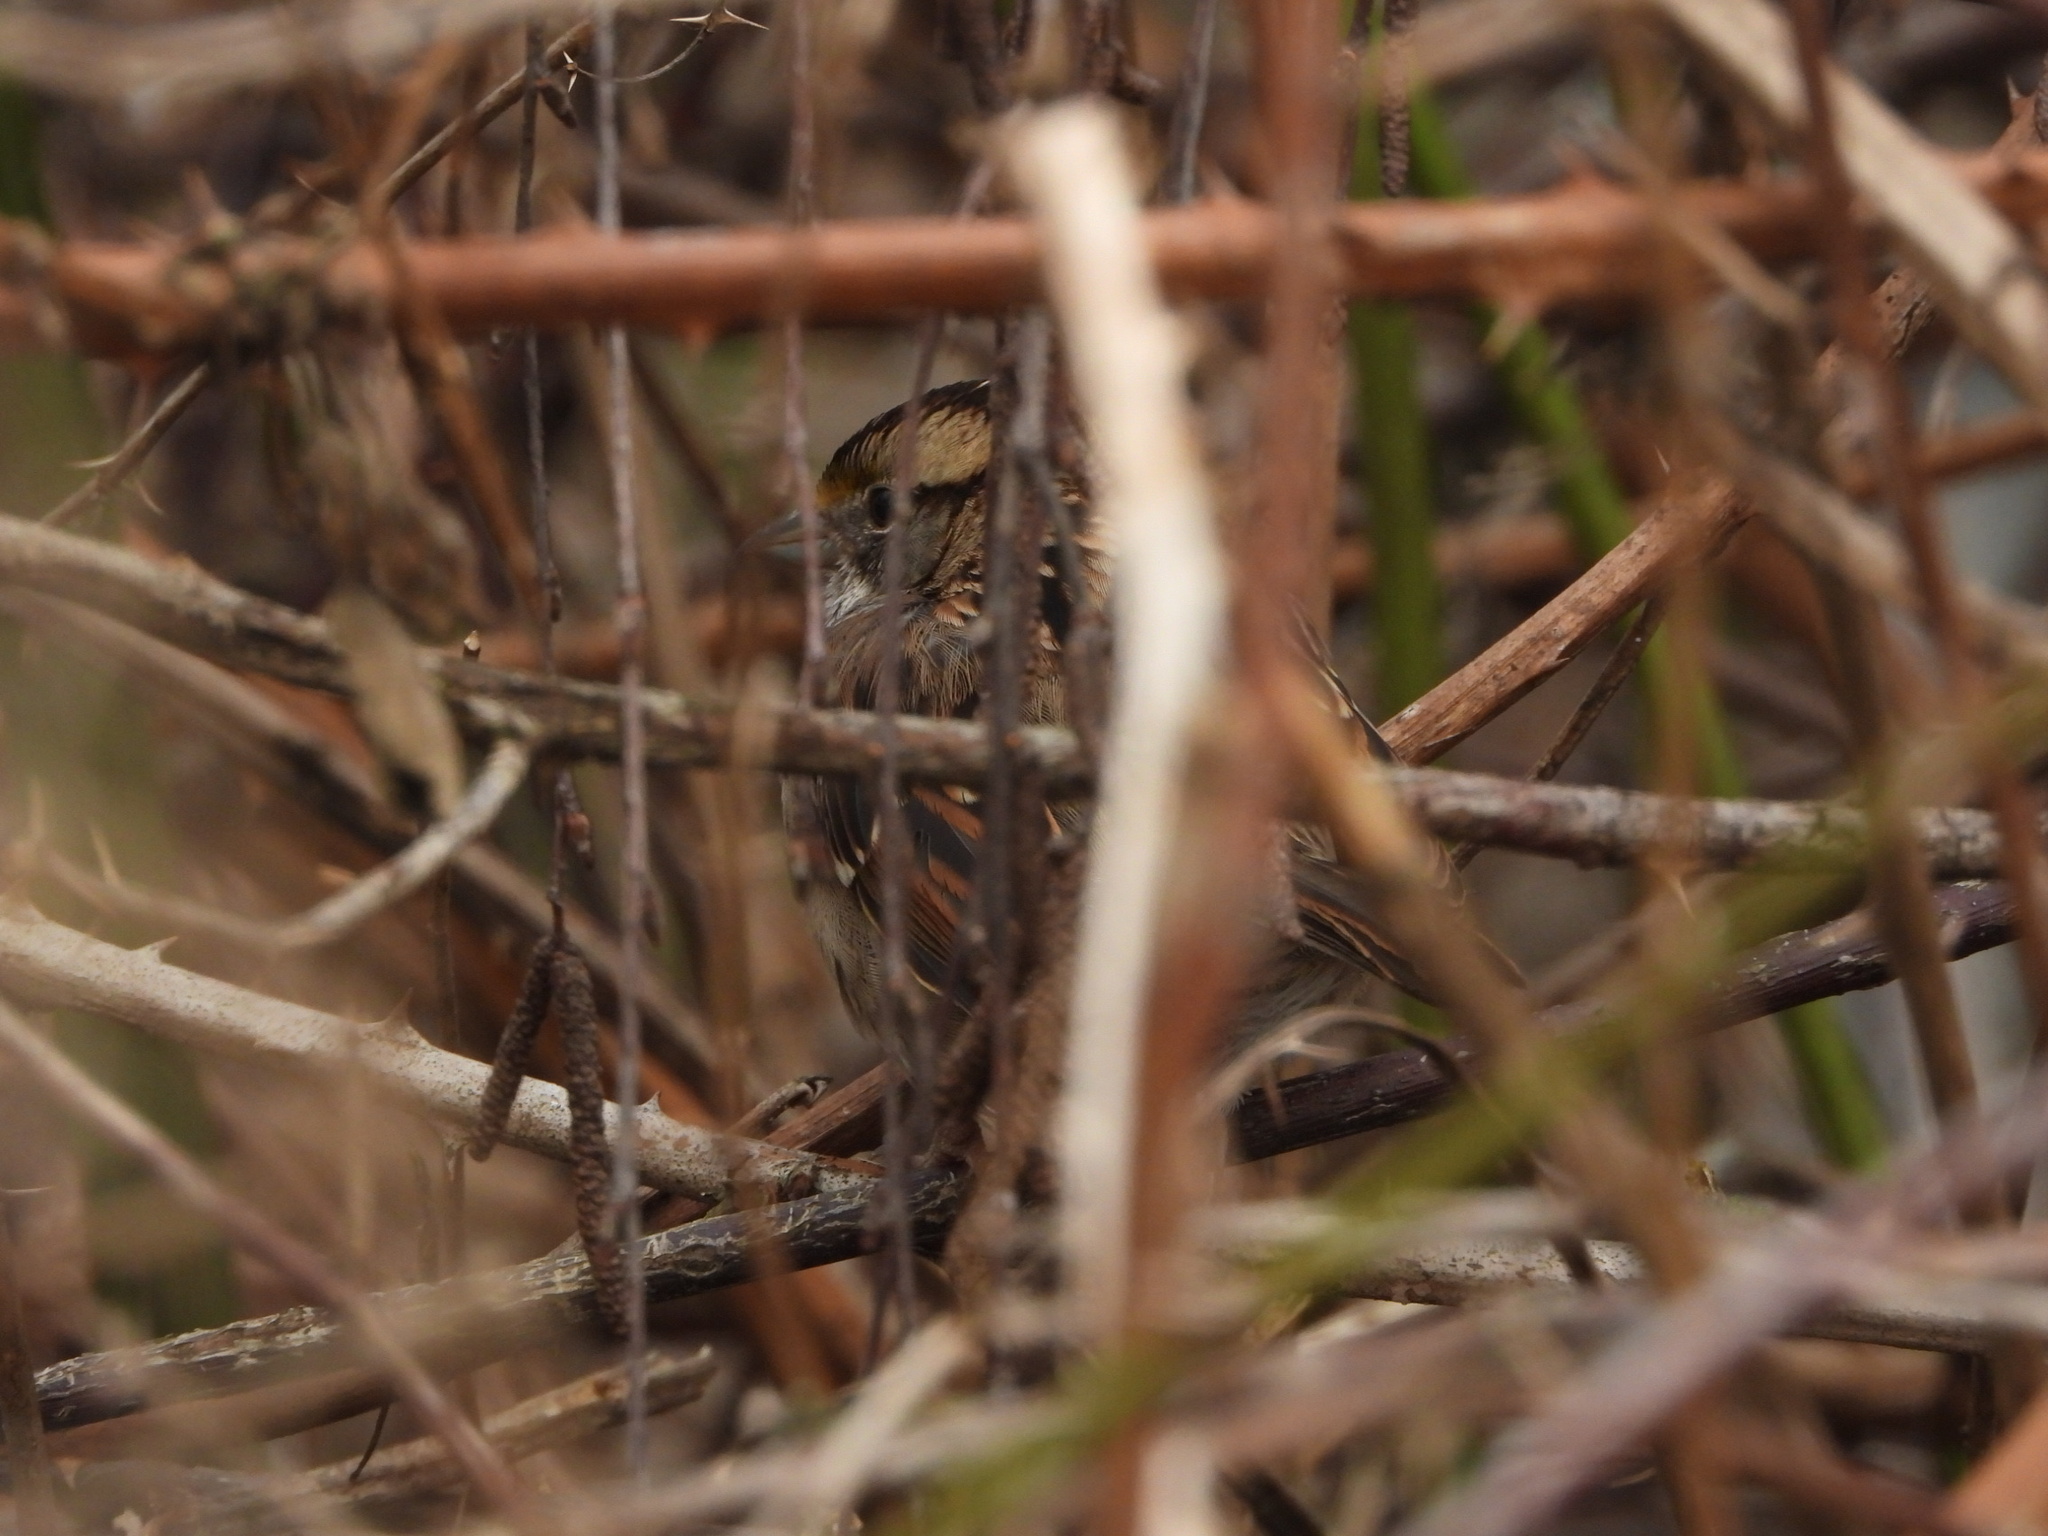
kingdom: Animalia
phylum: Chordata
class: Aves
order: Passeriformes
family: Passerellidae
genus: Zonotrichia
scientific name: Zonotrichia albicollis
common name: White-throated sparrow
